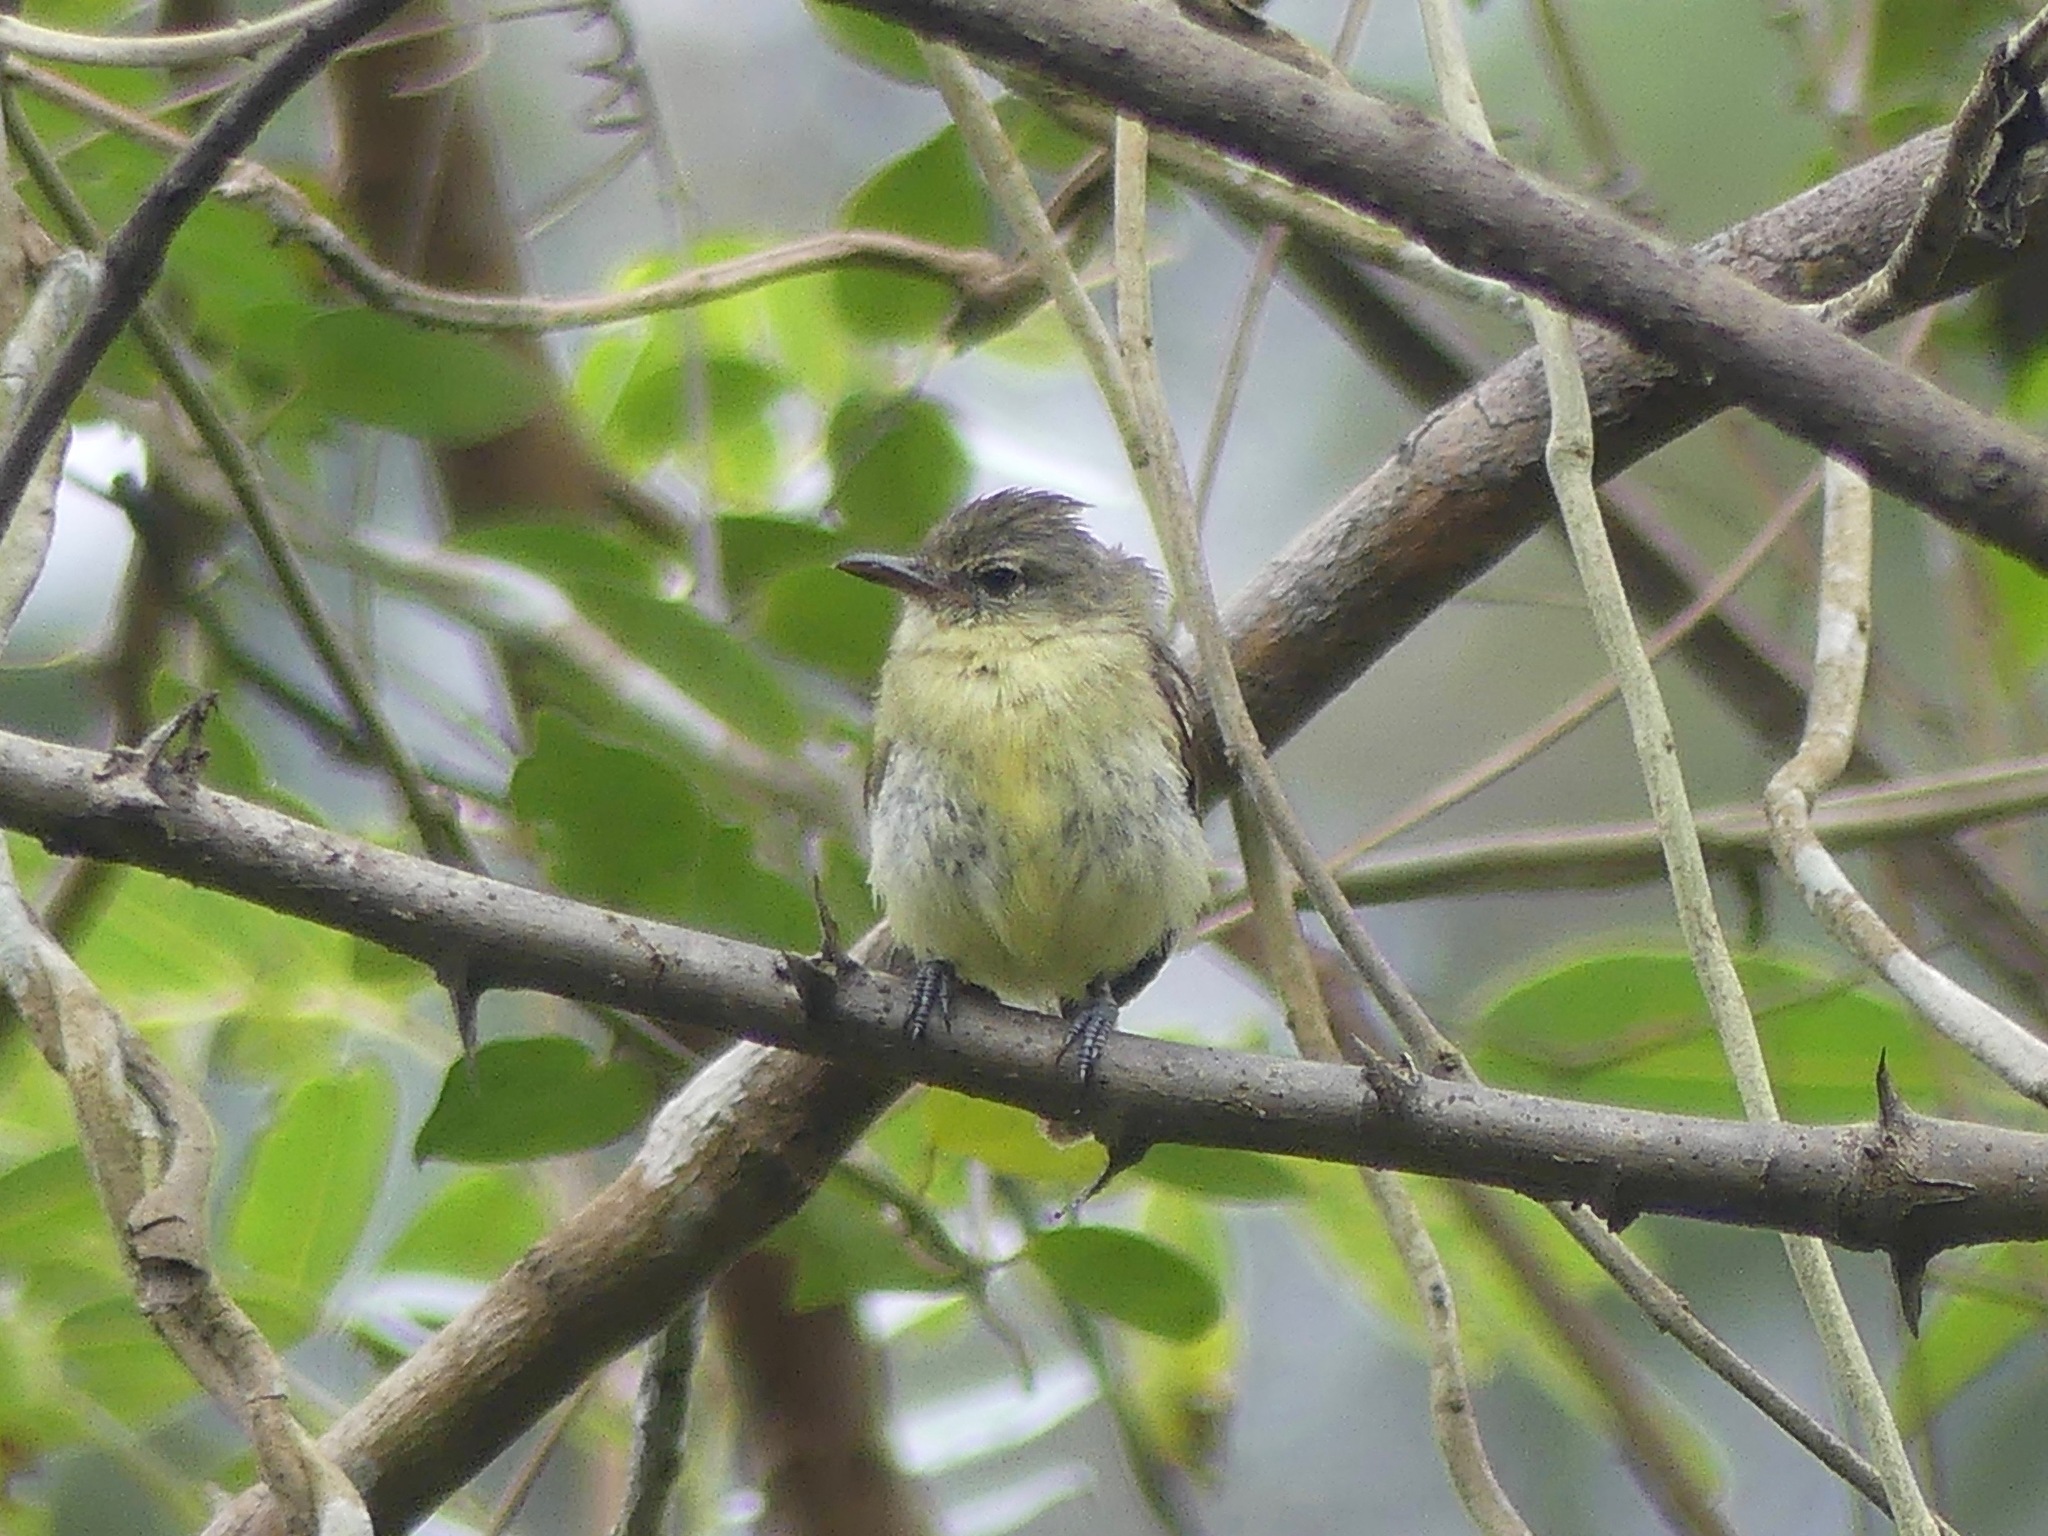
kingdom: Animalia
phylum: Chordata
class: Aves
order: Passeriformes
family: Tyrannidae
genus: Camptostoma
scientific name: Camptostoma obsoletum
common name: Southern beardless-tyrannulet
